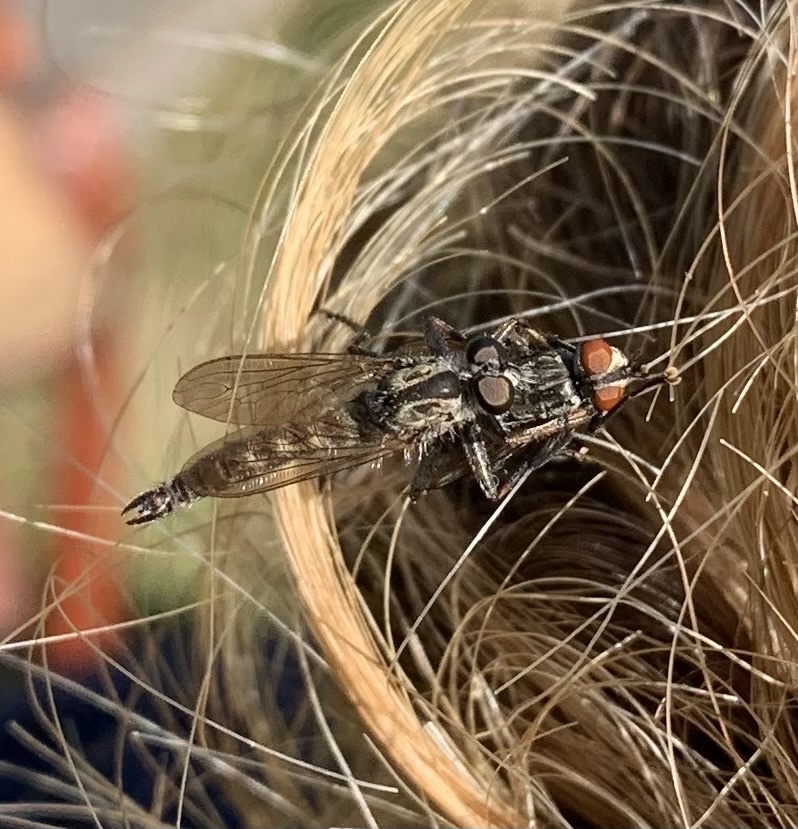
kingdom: Animalia
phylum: Arthropoda
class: Insecta
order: Diptera
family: Asilidae
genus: Machimus
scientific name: Machimus atricapillus
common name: Kite-tailed robberfly
